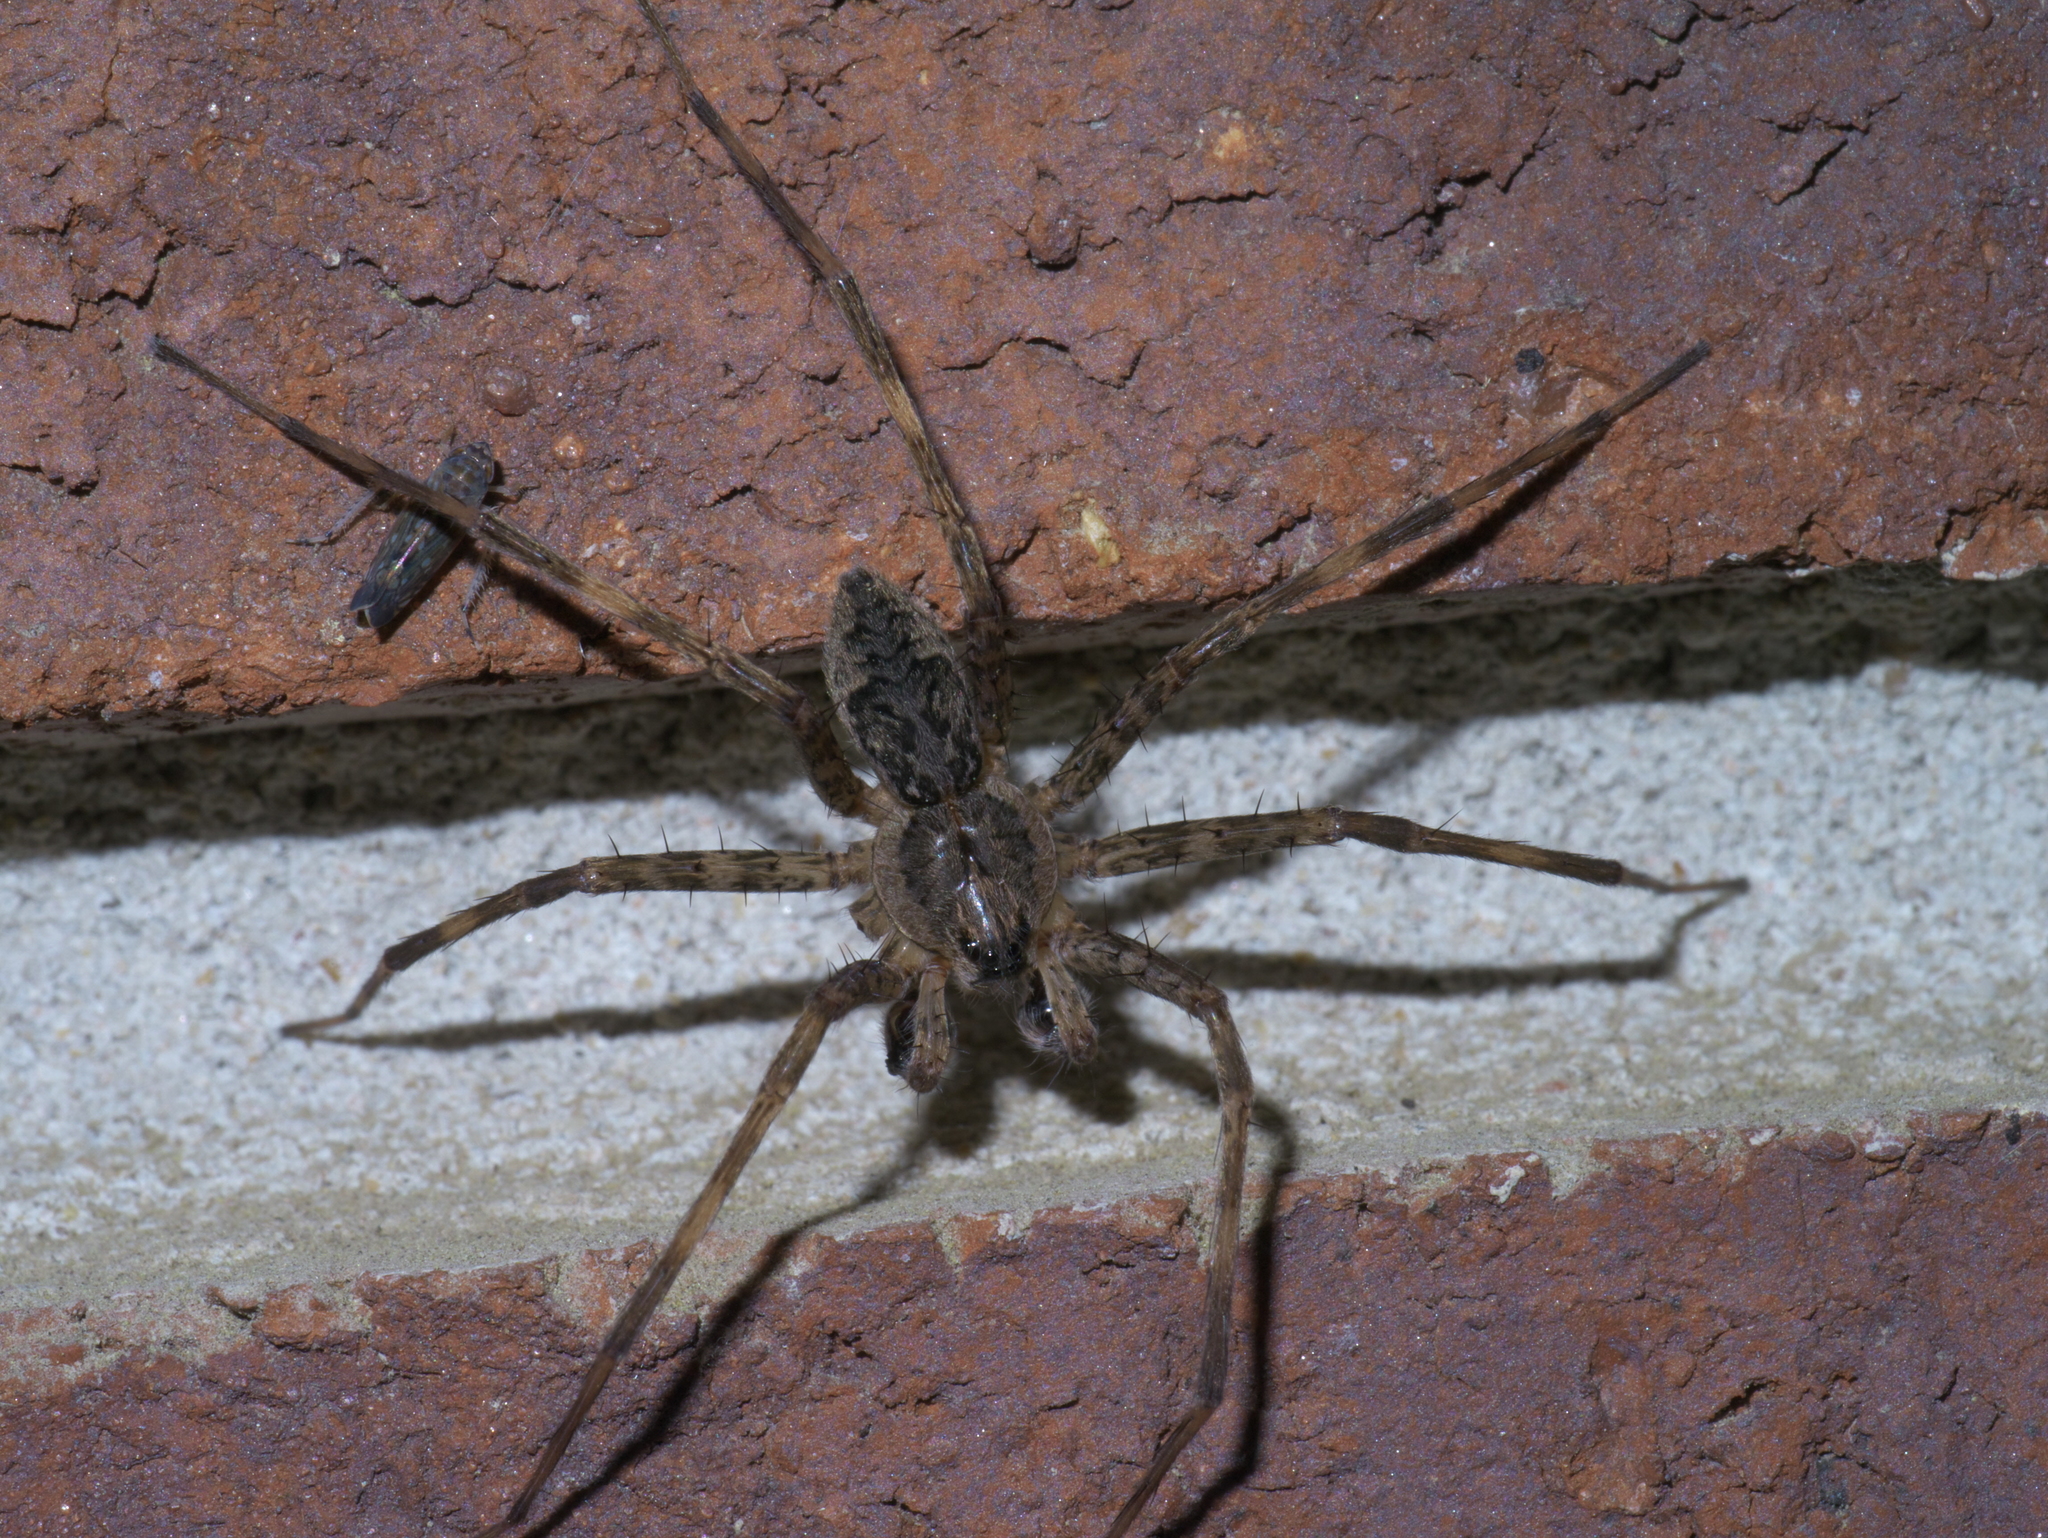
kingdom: Animalia
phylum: Arthropoda
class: Arachnida
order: Araneae
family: Pisauridae
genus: Dolomedes
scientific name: Dolomedes tenebrosus
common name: Dark fishing spider
